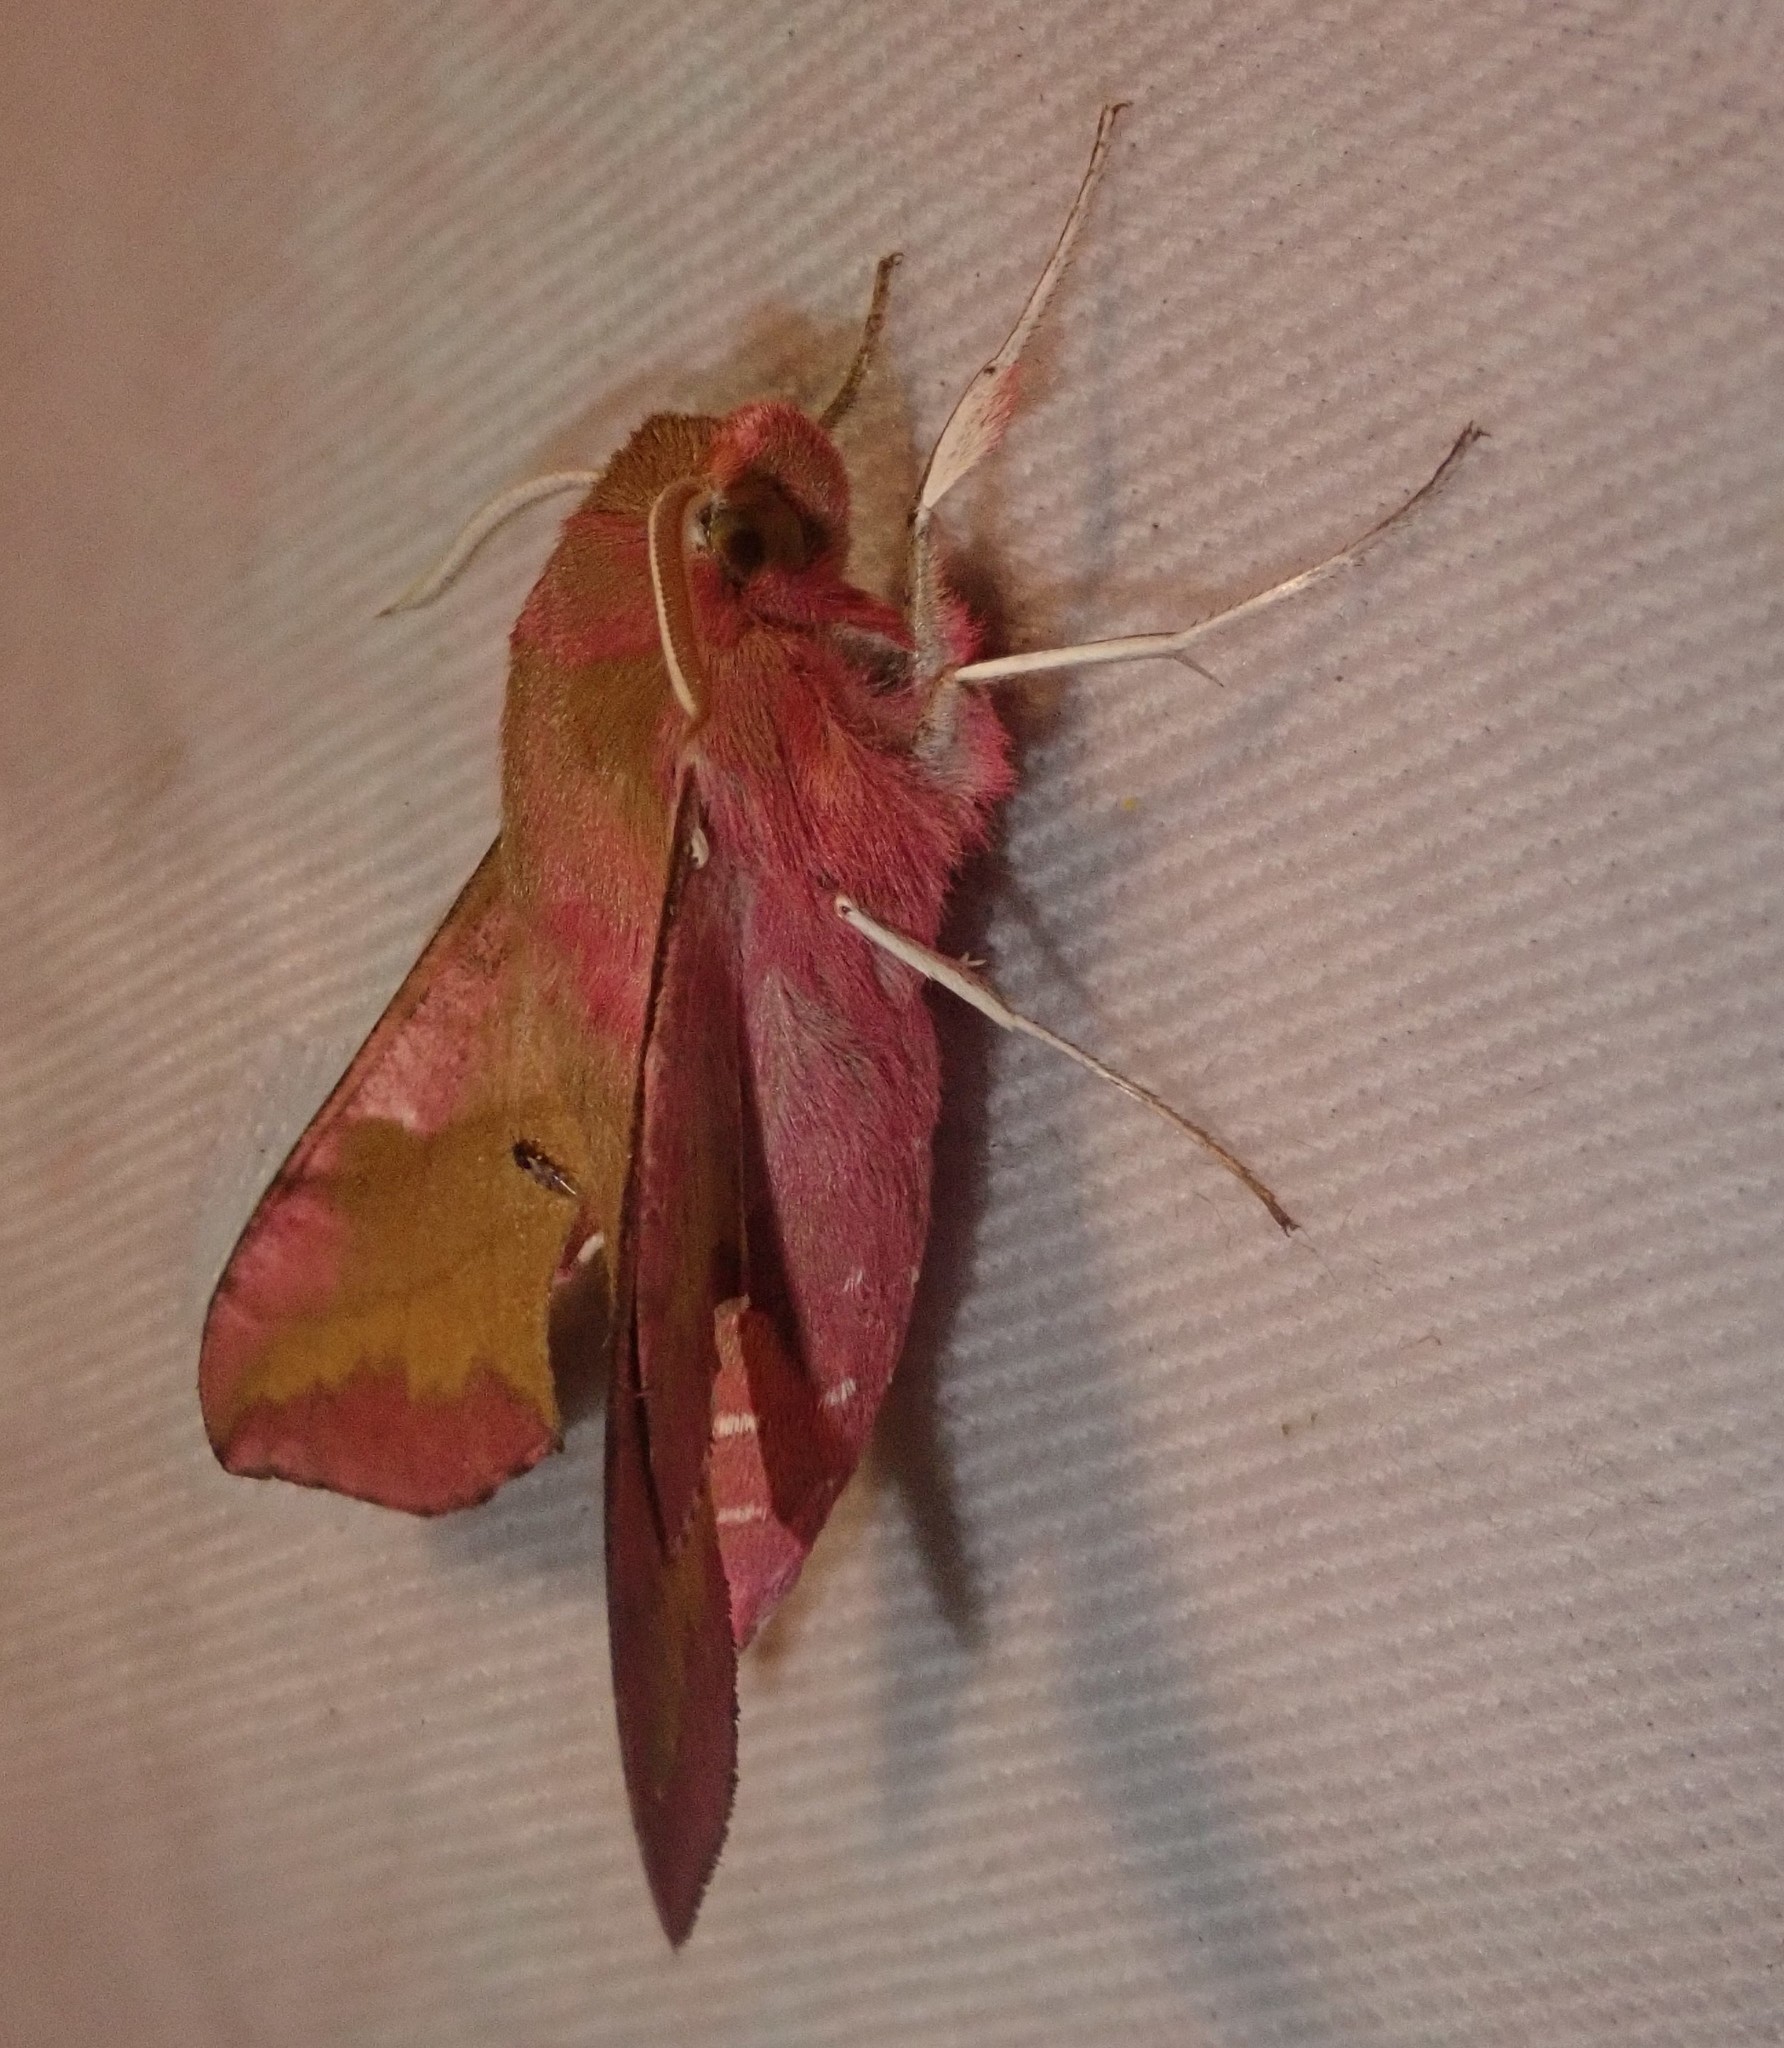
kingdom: Animalia
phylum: Arthropoda
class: Insecta
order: Lepidoptera
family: Sphingidae
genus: Deilephila
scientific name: Deilephila porcellus
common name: Small elephant hawk-moth
